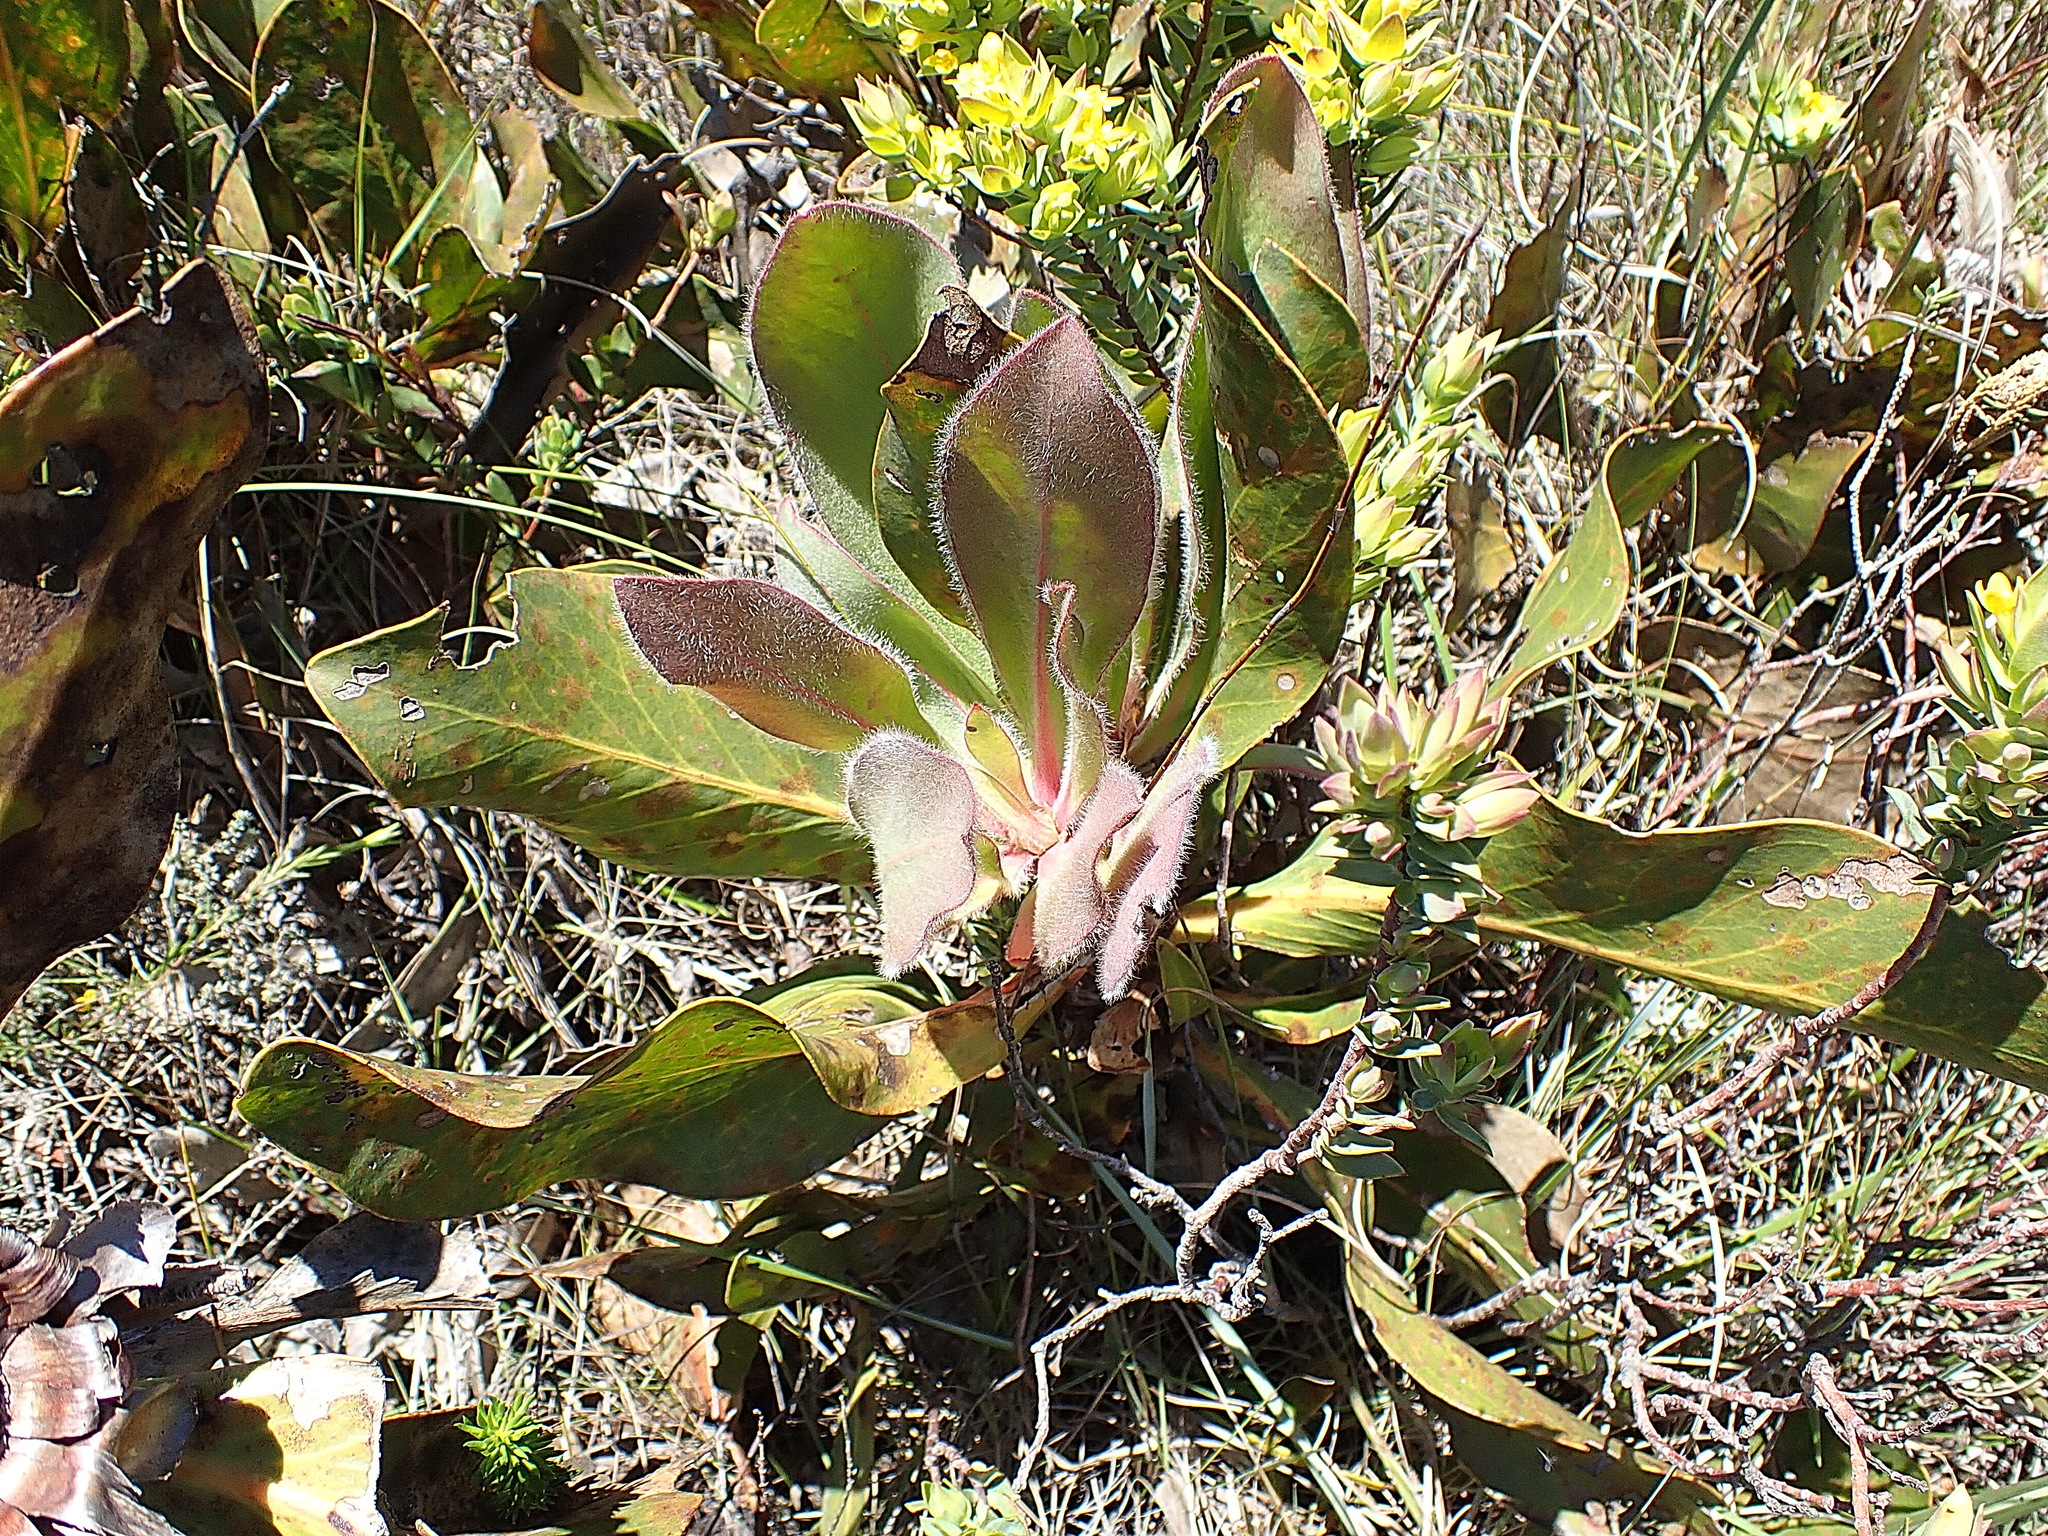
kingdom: Plantae
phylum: Tracheophyta
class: Magnoliopsida
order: Proteales
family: Proteaceae
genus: Protea
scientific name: Protea foliosa
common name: Leafy sugarbush
